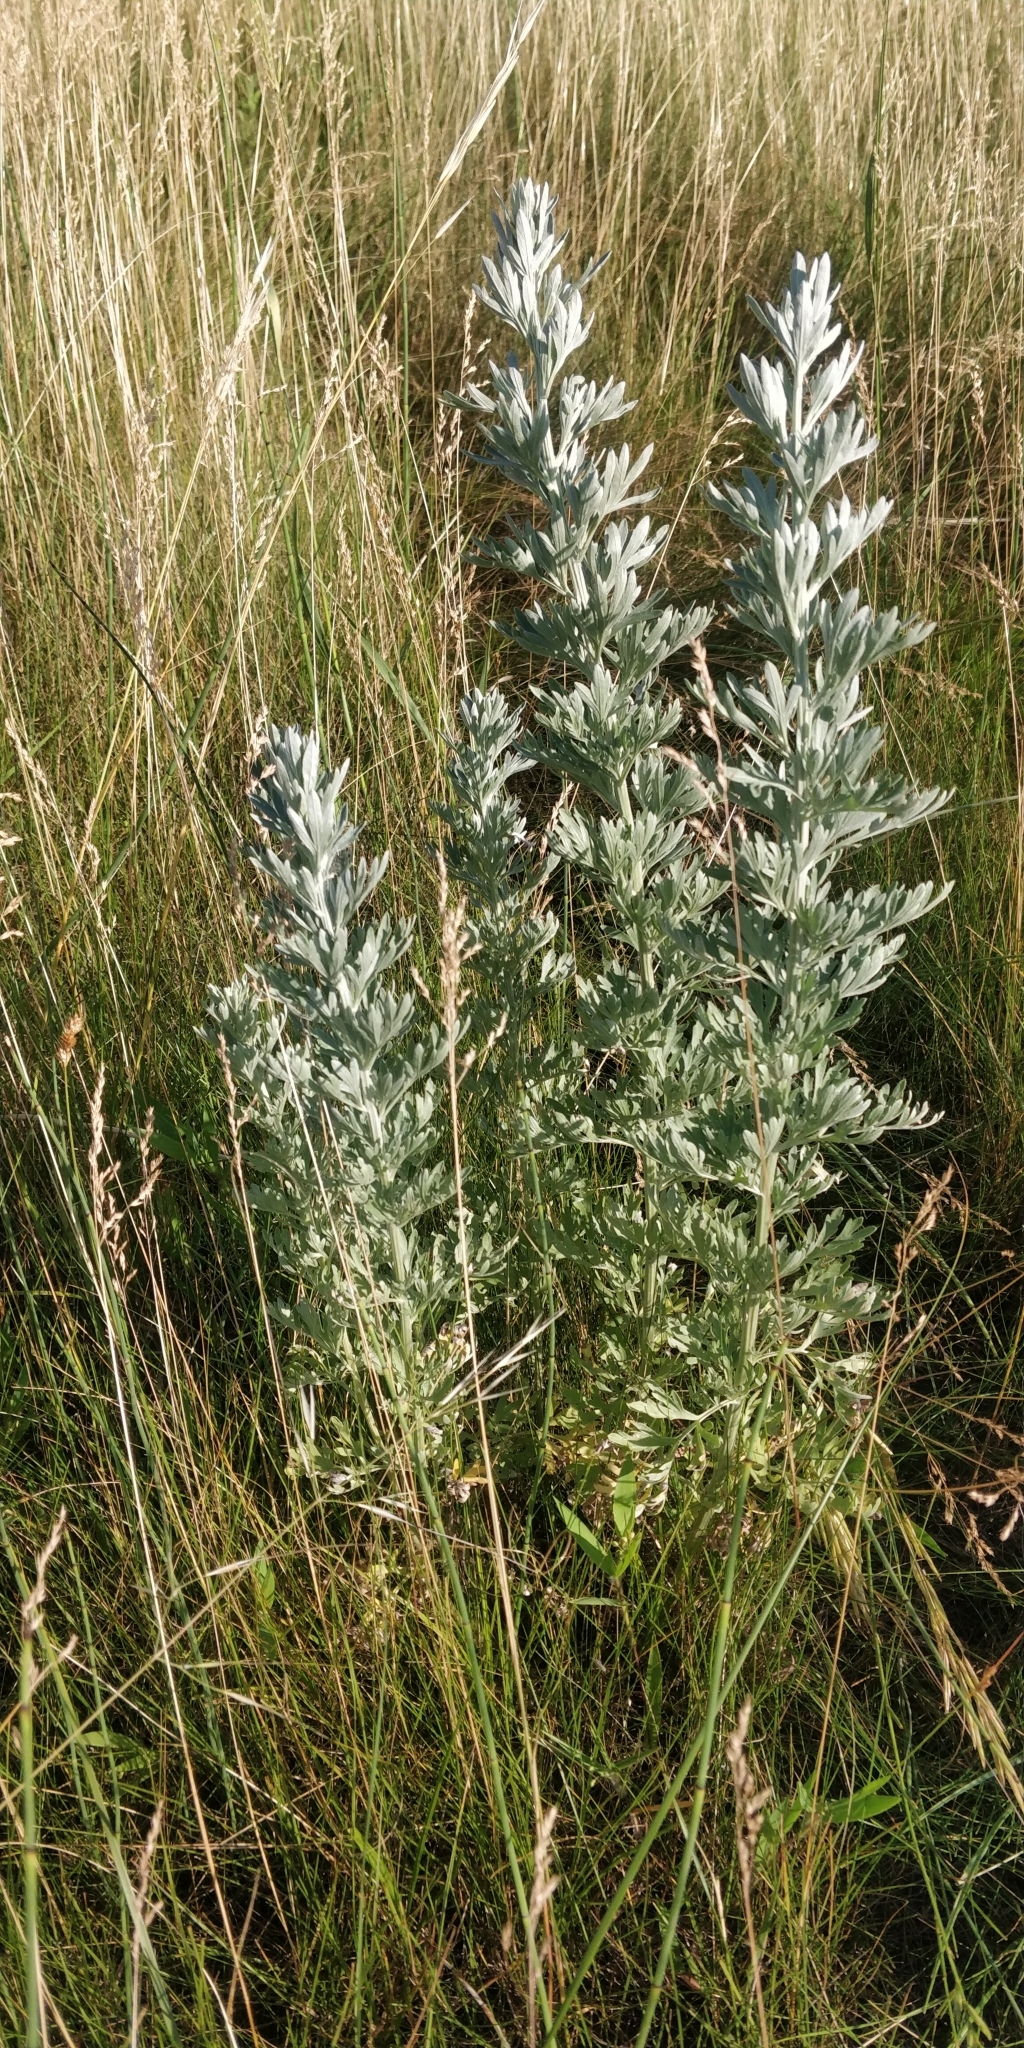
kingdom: Plantae
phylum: Tracheophyta
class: Magnoliopsida
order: Asterales
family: Asteraceae
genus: Artemisia
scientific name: Artemisia absinthium
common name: Wormwood
